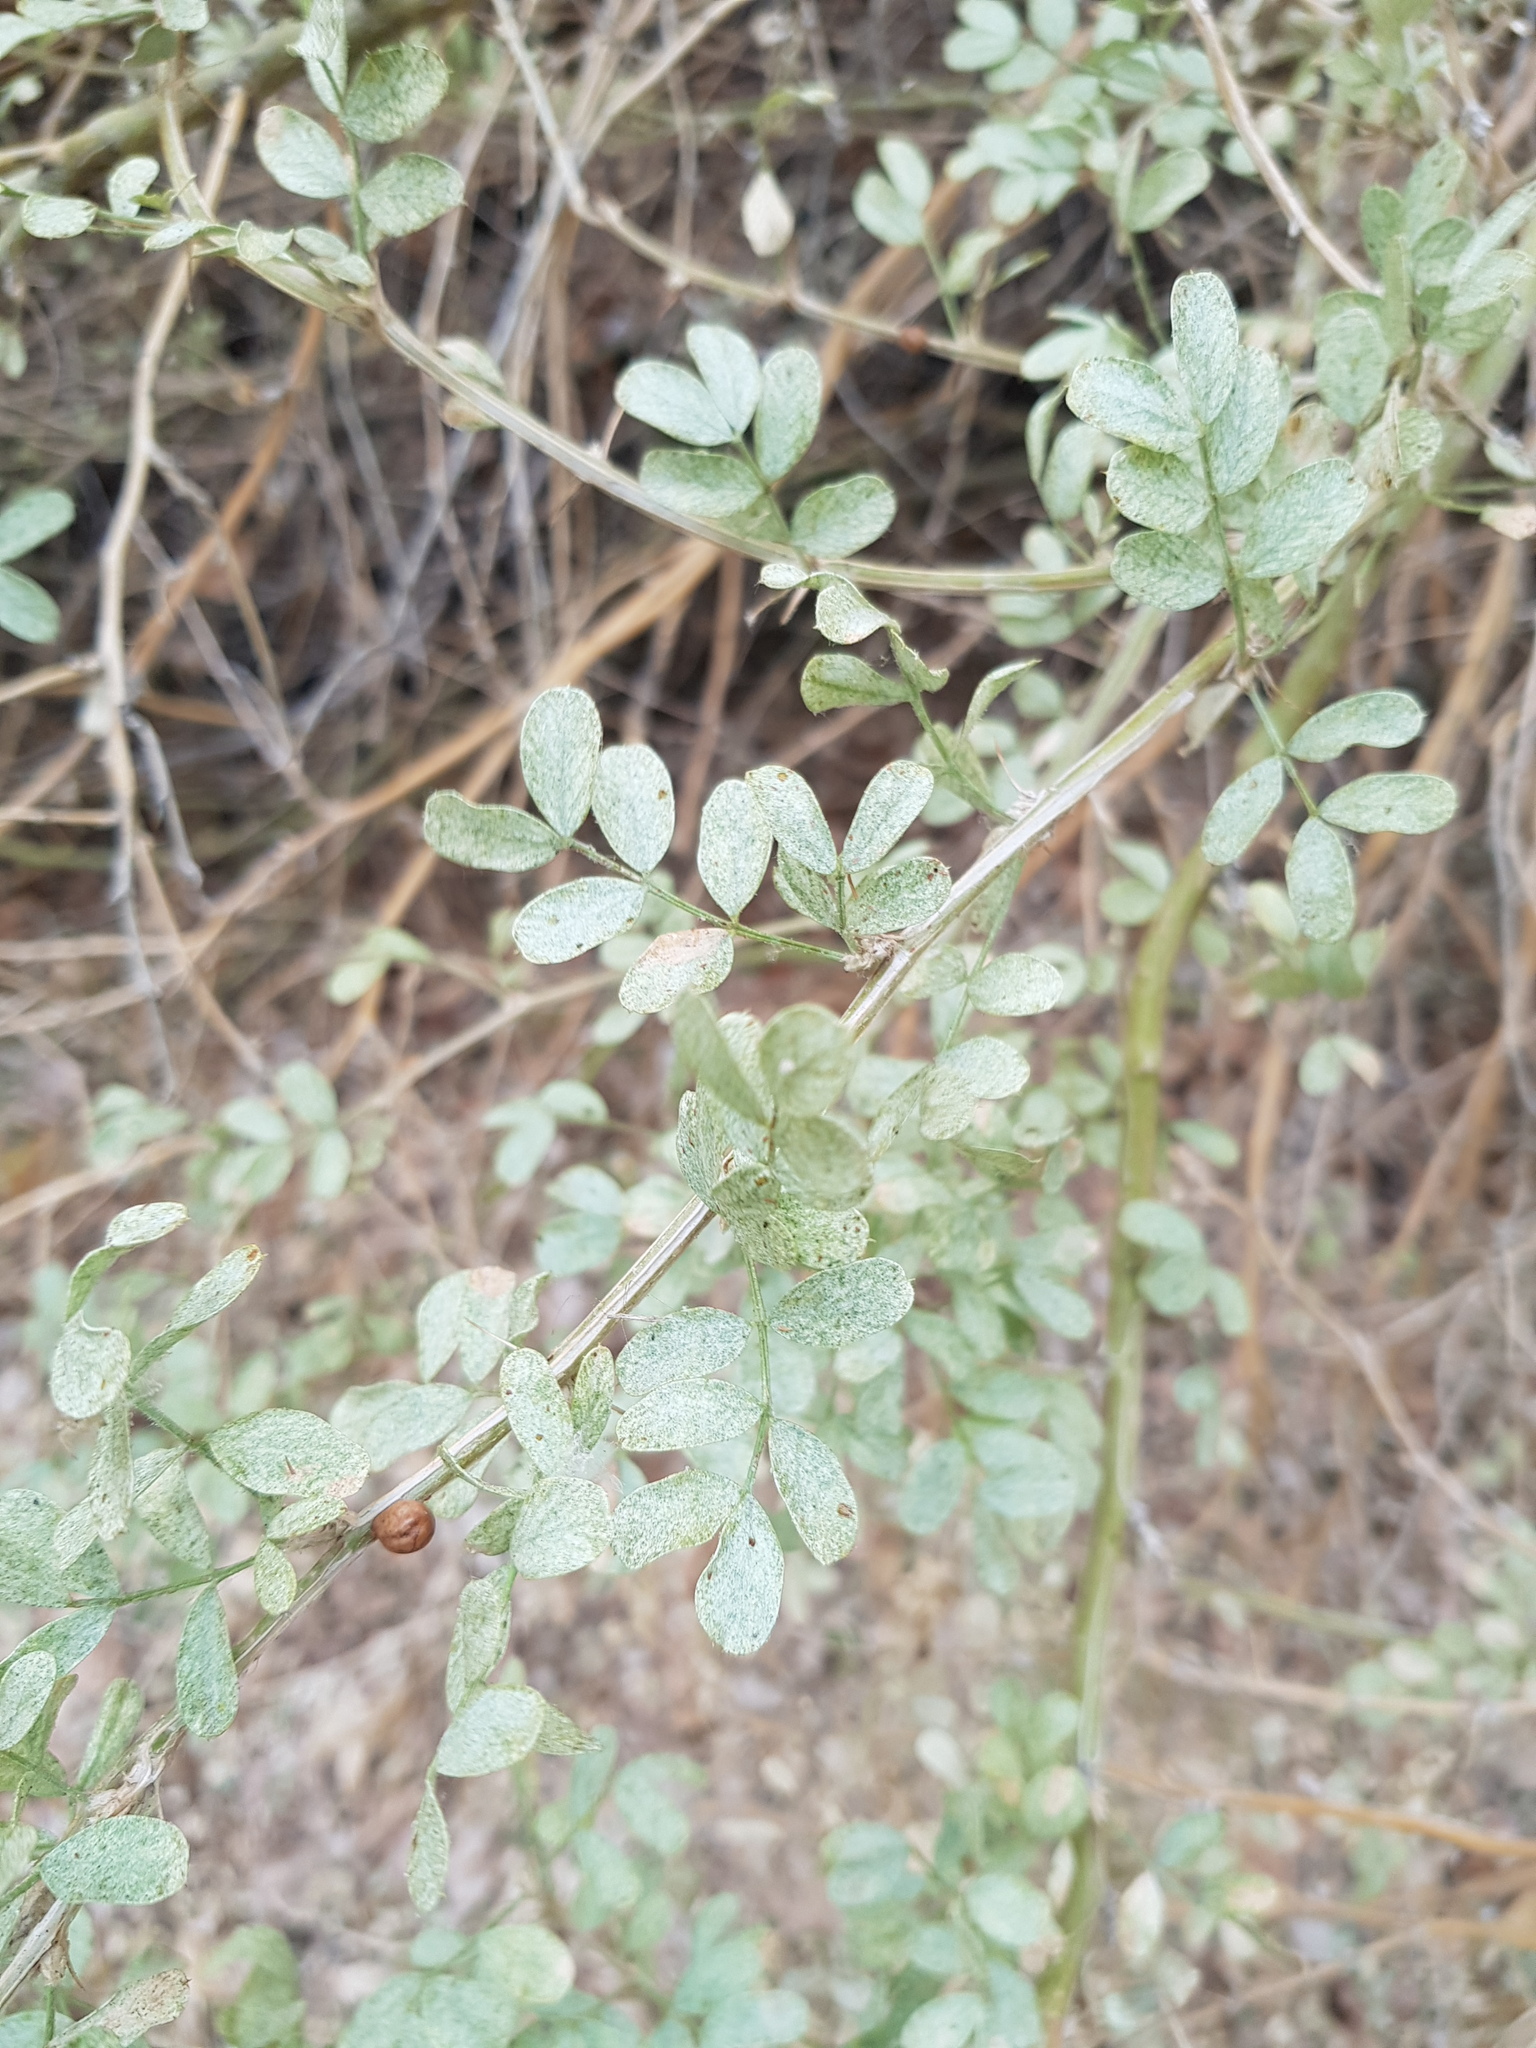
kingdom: Plantae
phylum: Tracheophyta
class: Magnoliopsida
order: Rosales
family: Rosaceae
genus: Rosa
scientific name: Rosa multiflora
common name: Multiflora rose
